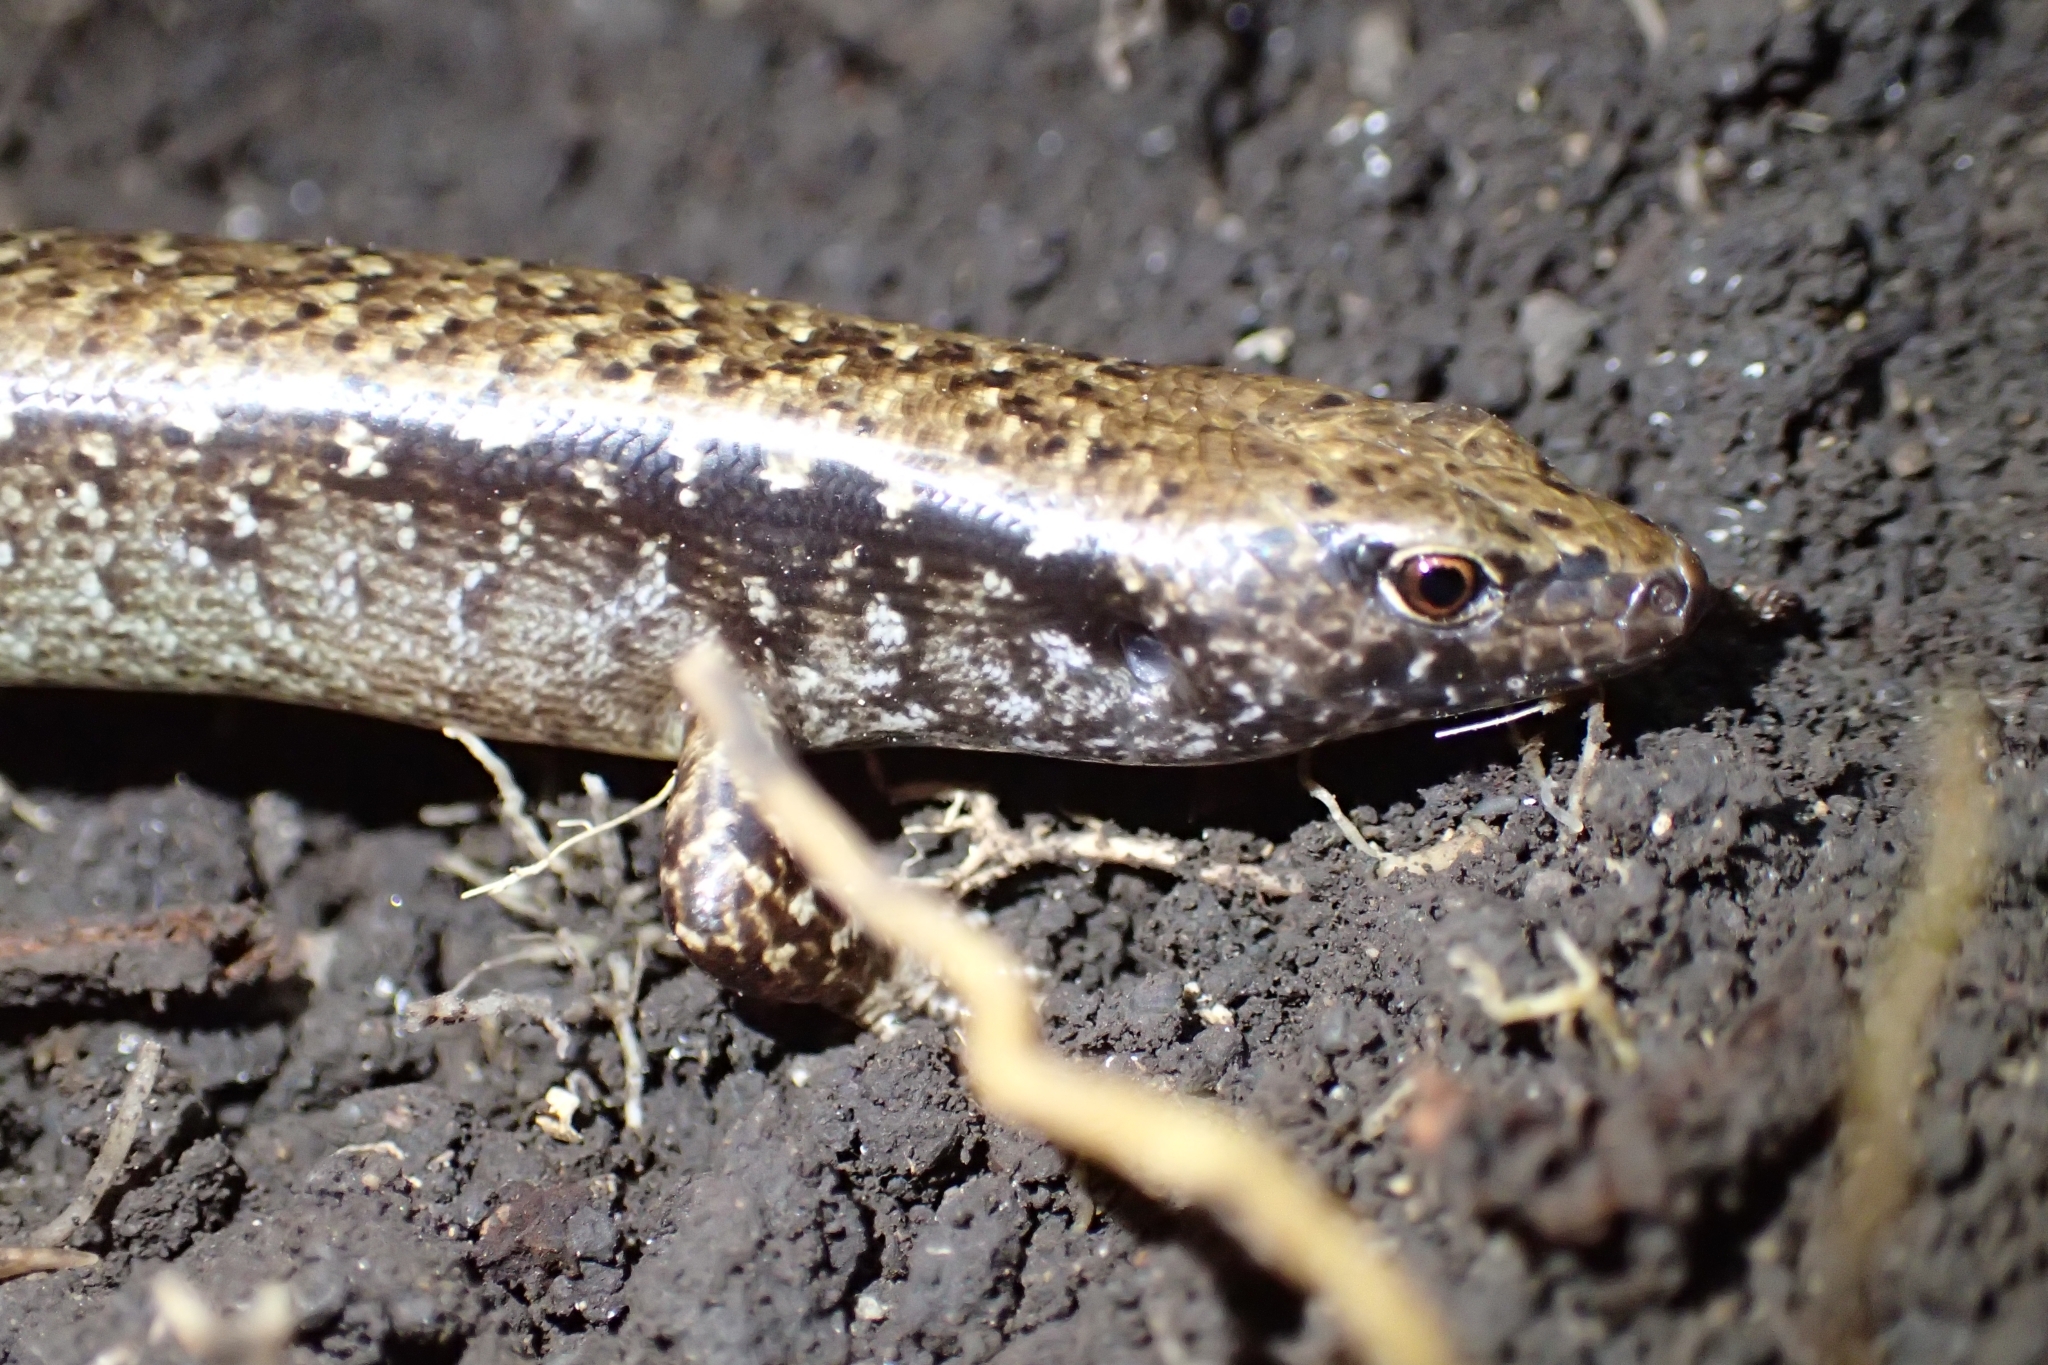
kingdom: Animalia
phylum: Chordata
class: Squamata
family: Scincidae
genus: Oligosoma
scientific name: Oligosoma townsi
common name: Towns’ skink
